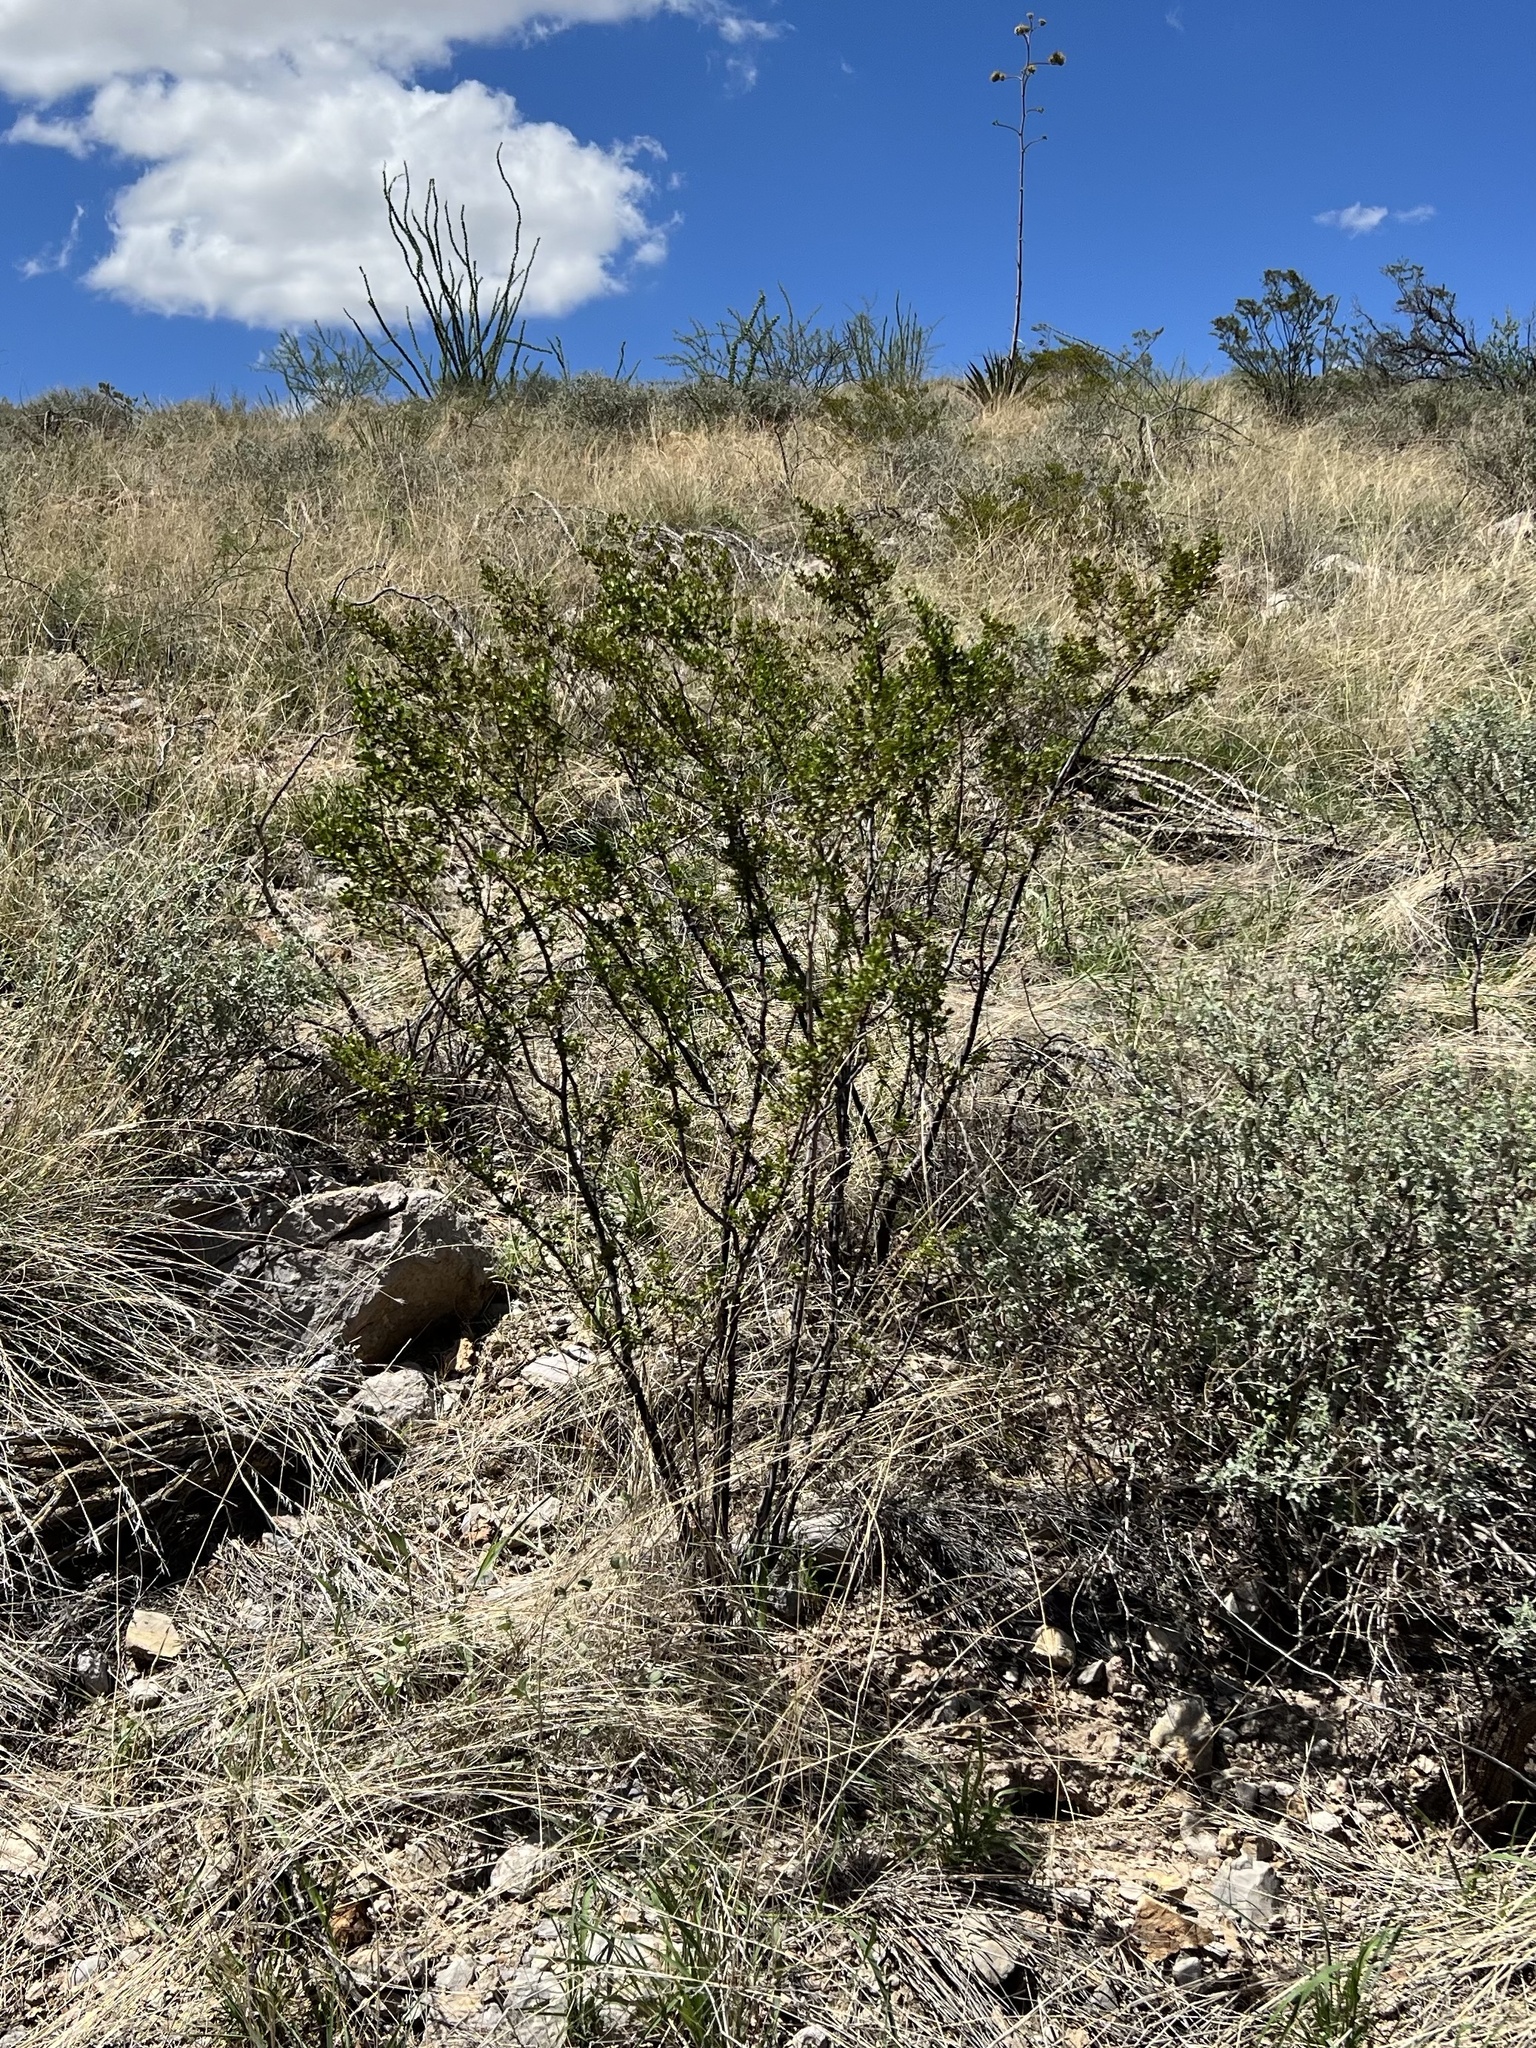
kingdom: Plantae
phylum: Tracheophyta
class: Magnoliopsida
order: Zygophyllales
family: Zygophyllaceae
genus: Larrea
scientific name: Larrea tridentata
